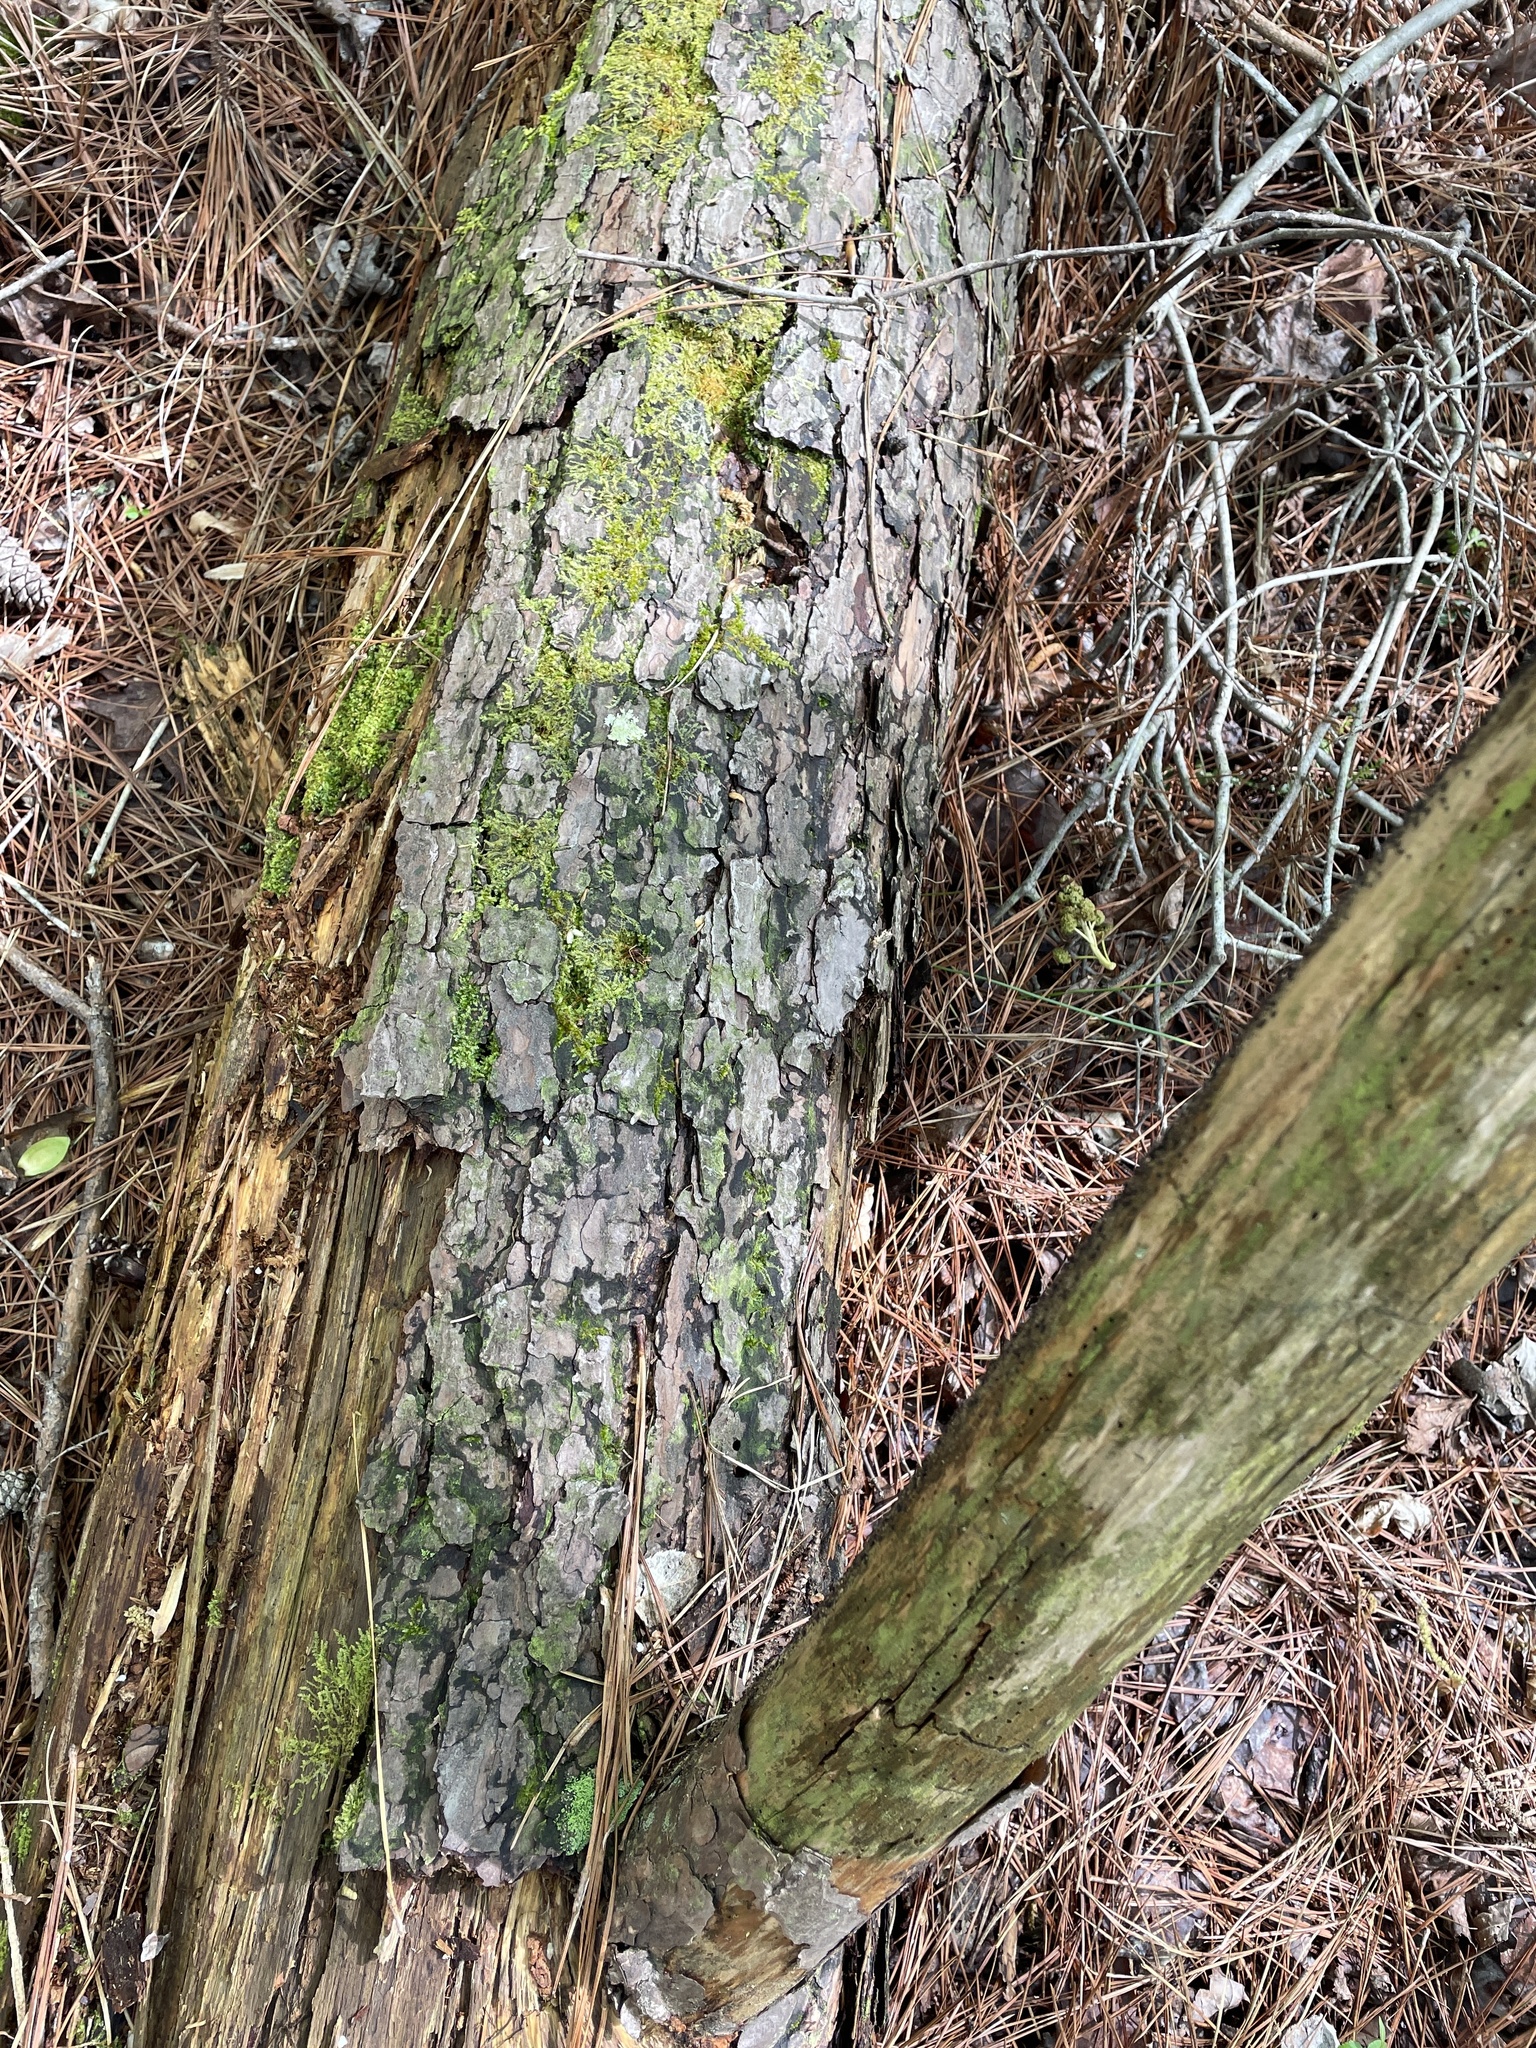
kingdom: Fungi
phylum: Basidiomycota
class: Agaricomycetes
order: Russulales
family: Bondarzewiaceae
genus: Wrightoporia
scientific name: Wrightoporia austrosinensis
